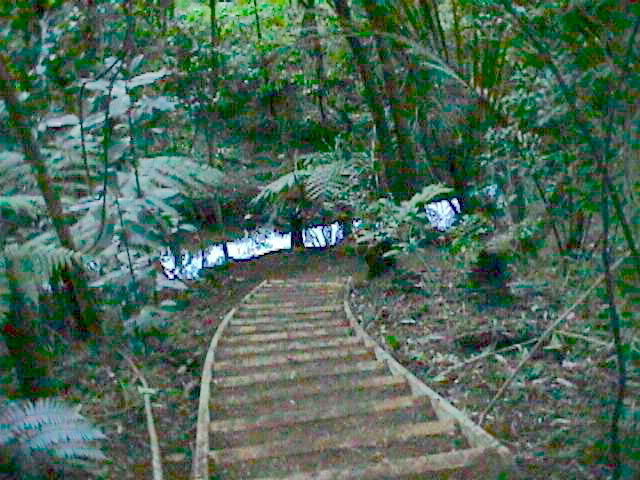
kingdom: Plantae
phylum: Tracheophyta
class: Magnoliopsida
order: Cucurbitales
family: Corynocarpaceae
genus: Corynocarpus
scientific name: Corynocarpus laevigatus
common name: New zealand laurel
